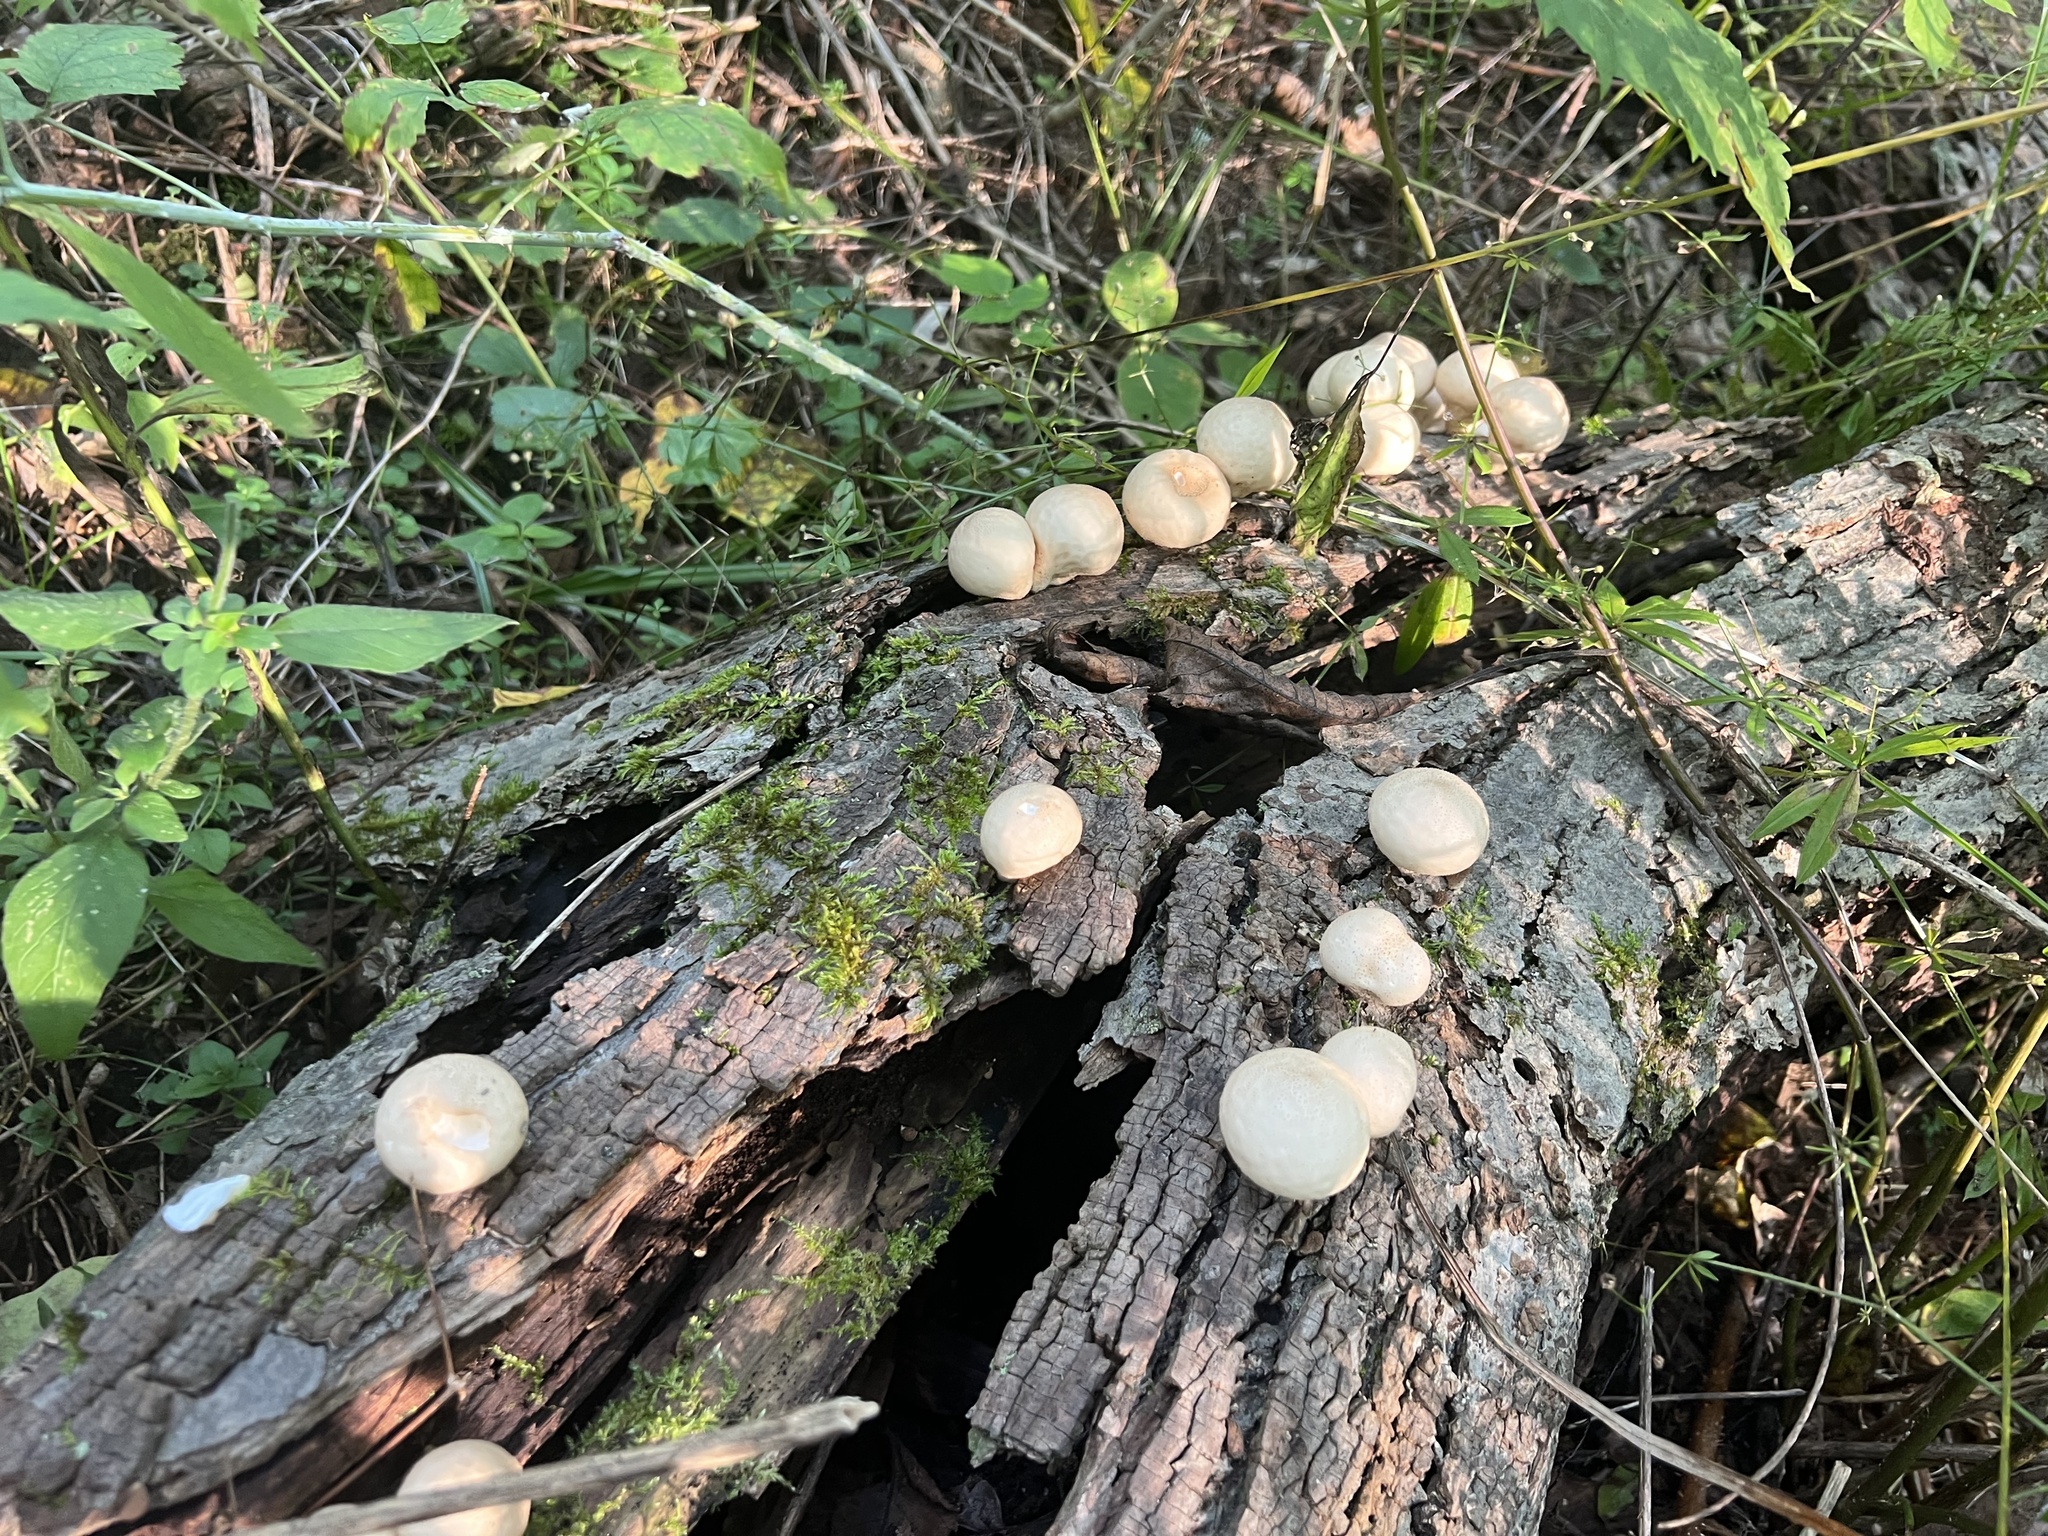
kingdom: Fungi
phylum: Basidiomycota
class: Agaricomycetes
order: Agaricales
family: Lycoperdaceae
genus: Apioperdon
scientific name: Apioperdon pyriforme
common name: Pear-shaped puffball
